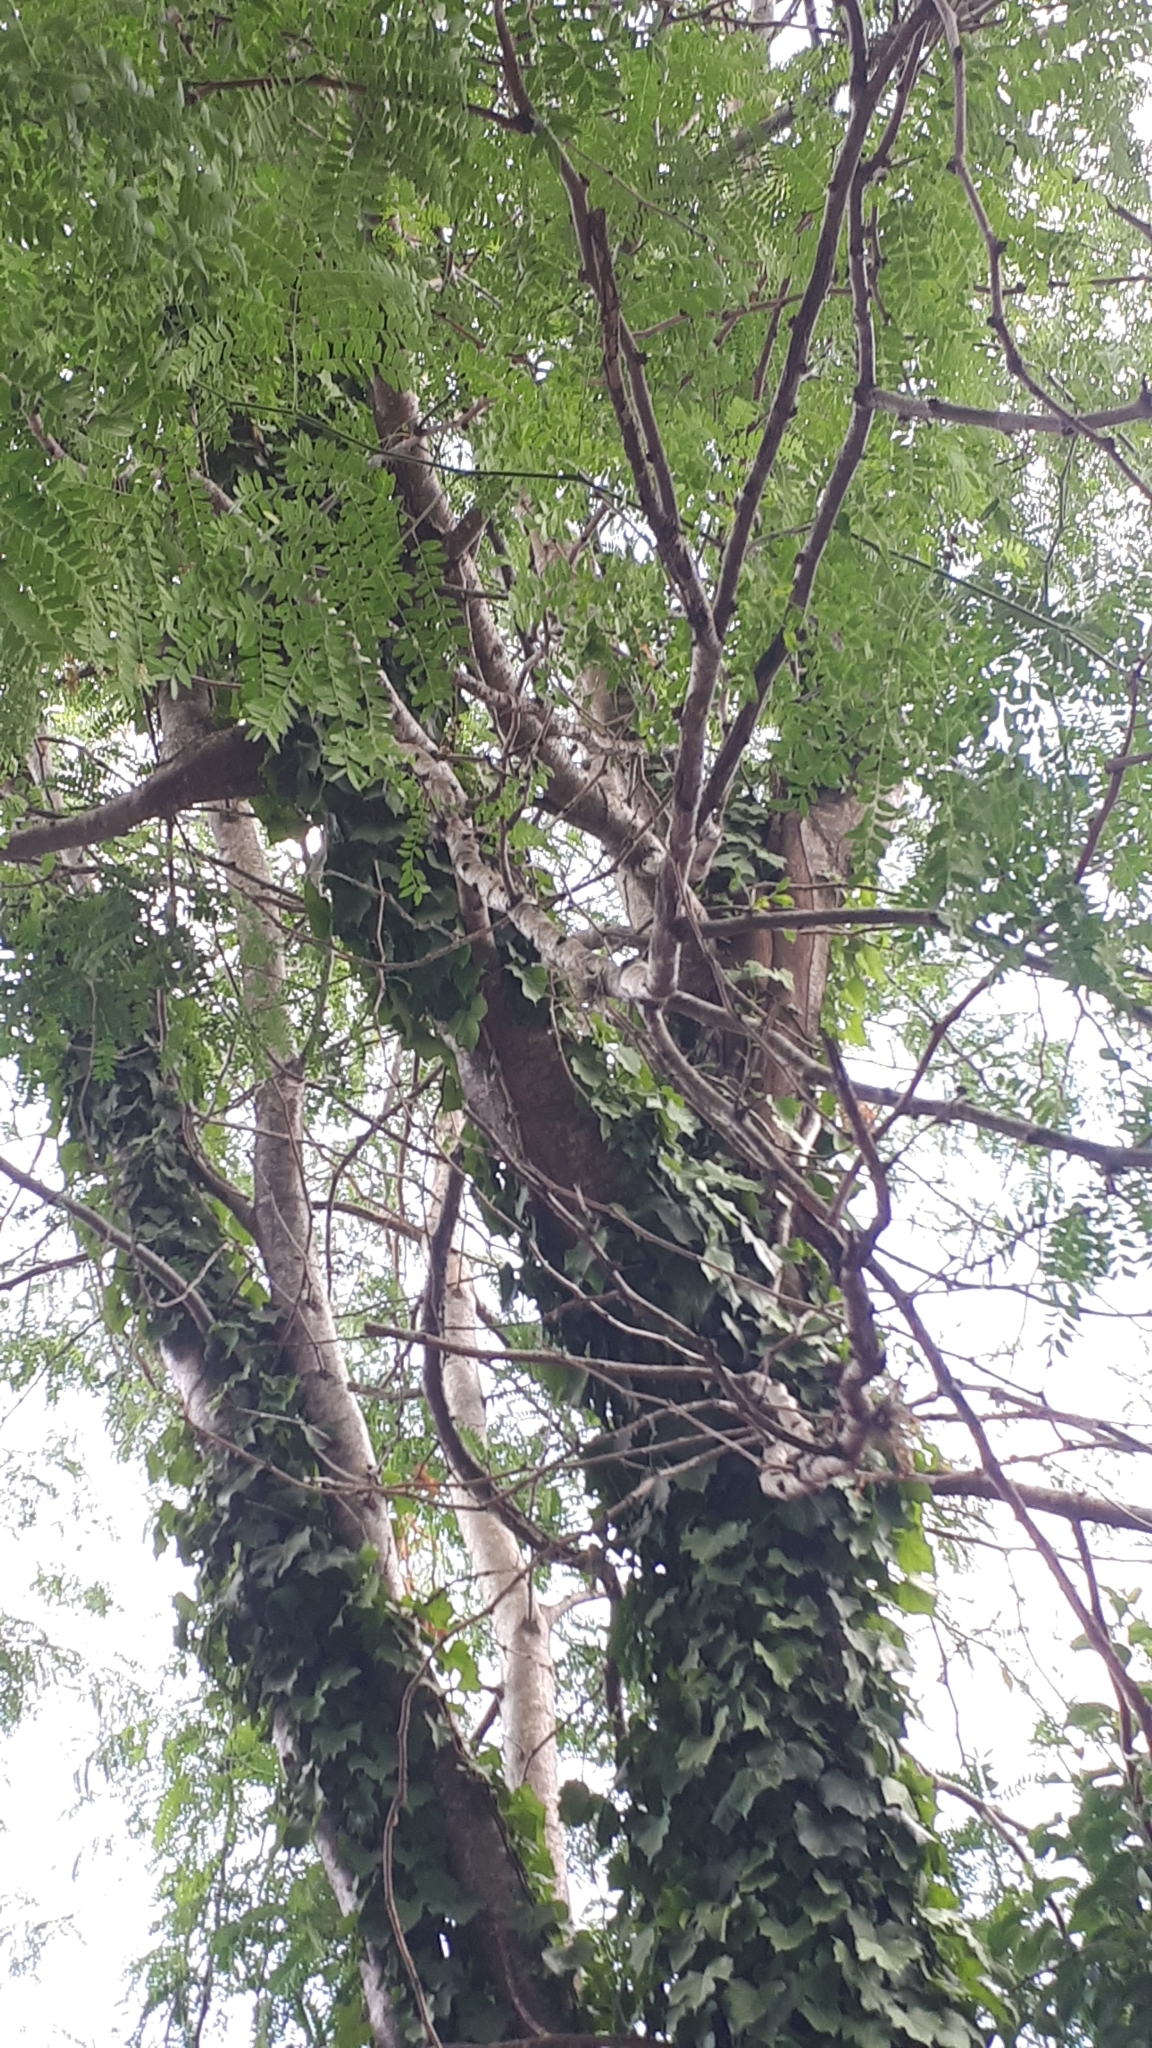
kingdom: Plantae
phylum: Tracheophyta
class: Magnoliopsida
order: Fabales
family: Fabaceae
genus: Gleditsia
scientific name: Gleditsia triacanthos
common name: Common honeylocust
